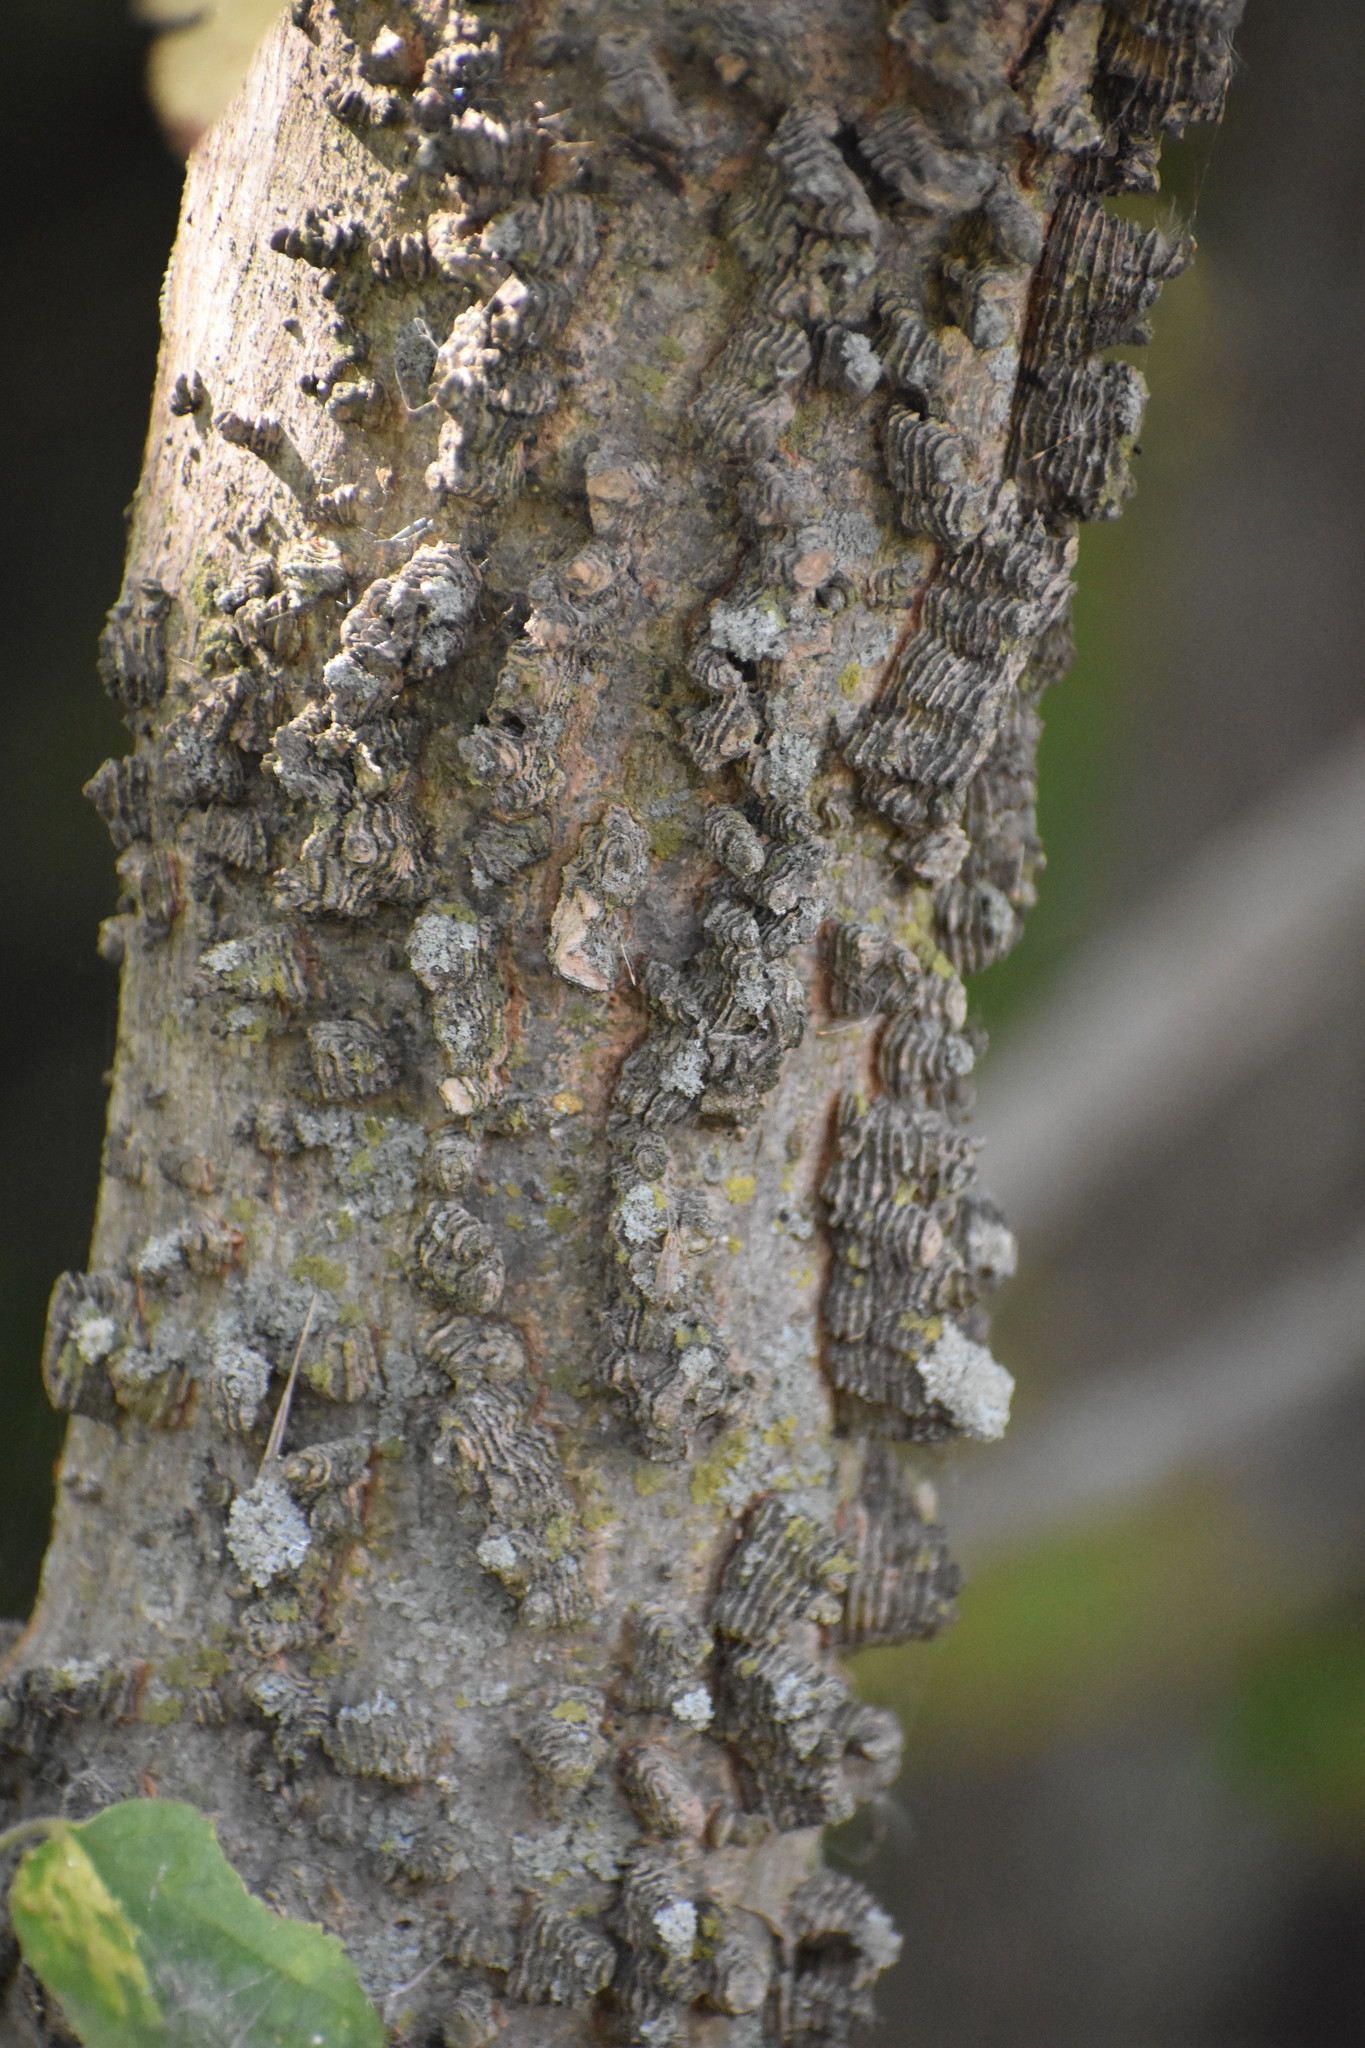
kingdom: Plantae
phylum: Tracheophyta
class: Magnoliopsida
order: Rosales
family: Cannabaceae
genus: Celtis
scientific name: Celtis occidentalis
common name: Common hackberry
